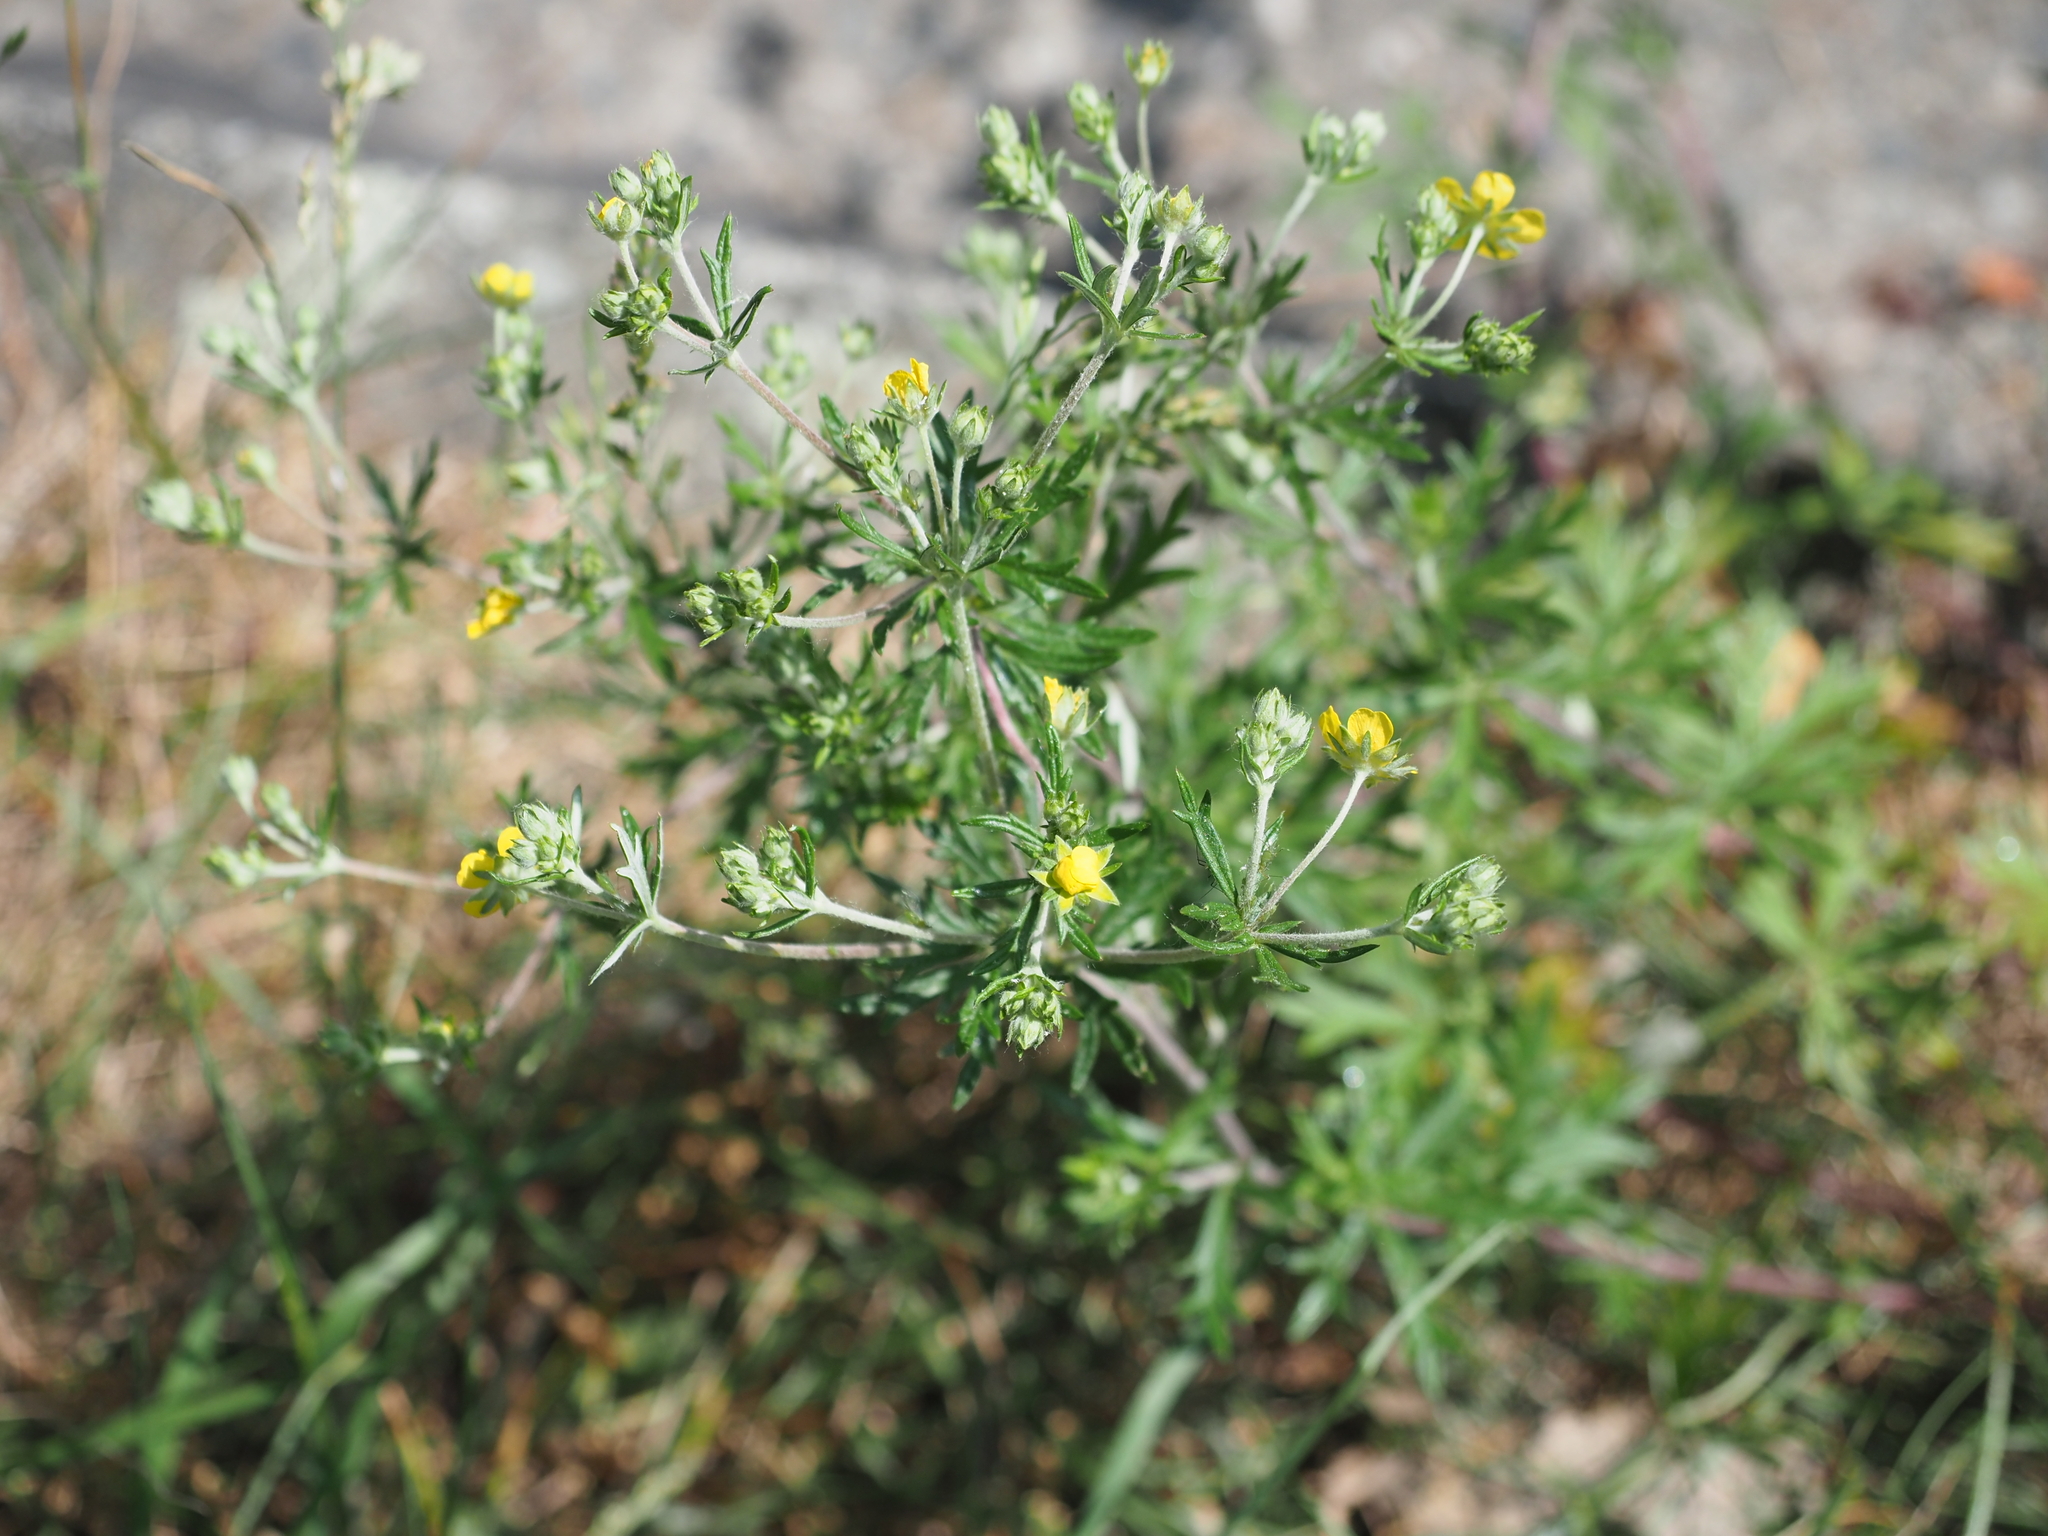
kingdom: Plantae
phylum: Tracheophyta
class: Magnoliopsida
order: Rosales
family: Rosaceae
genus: Potentilla
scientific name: Potentilla argentea
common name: Hoary cinquefoil
